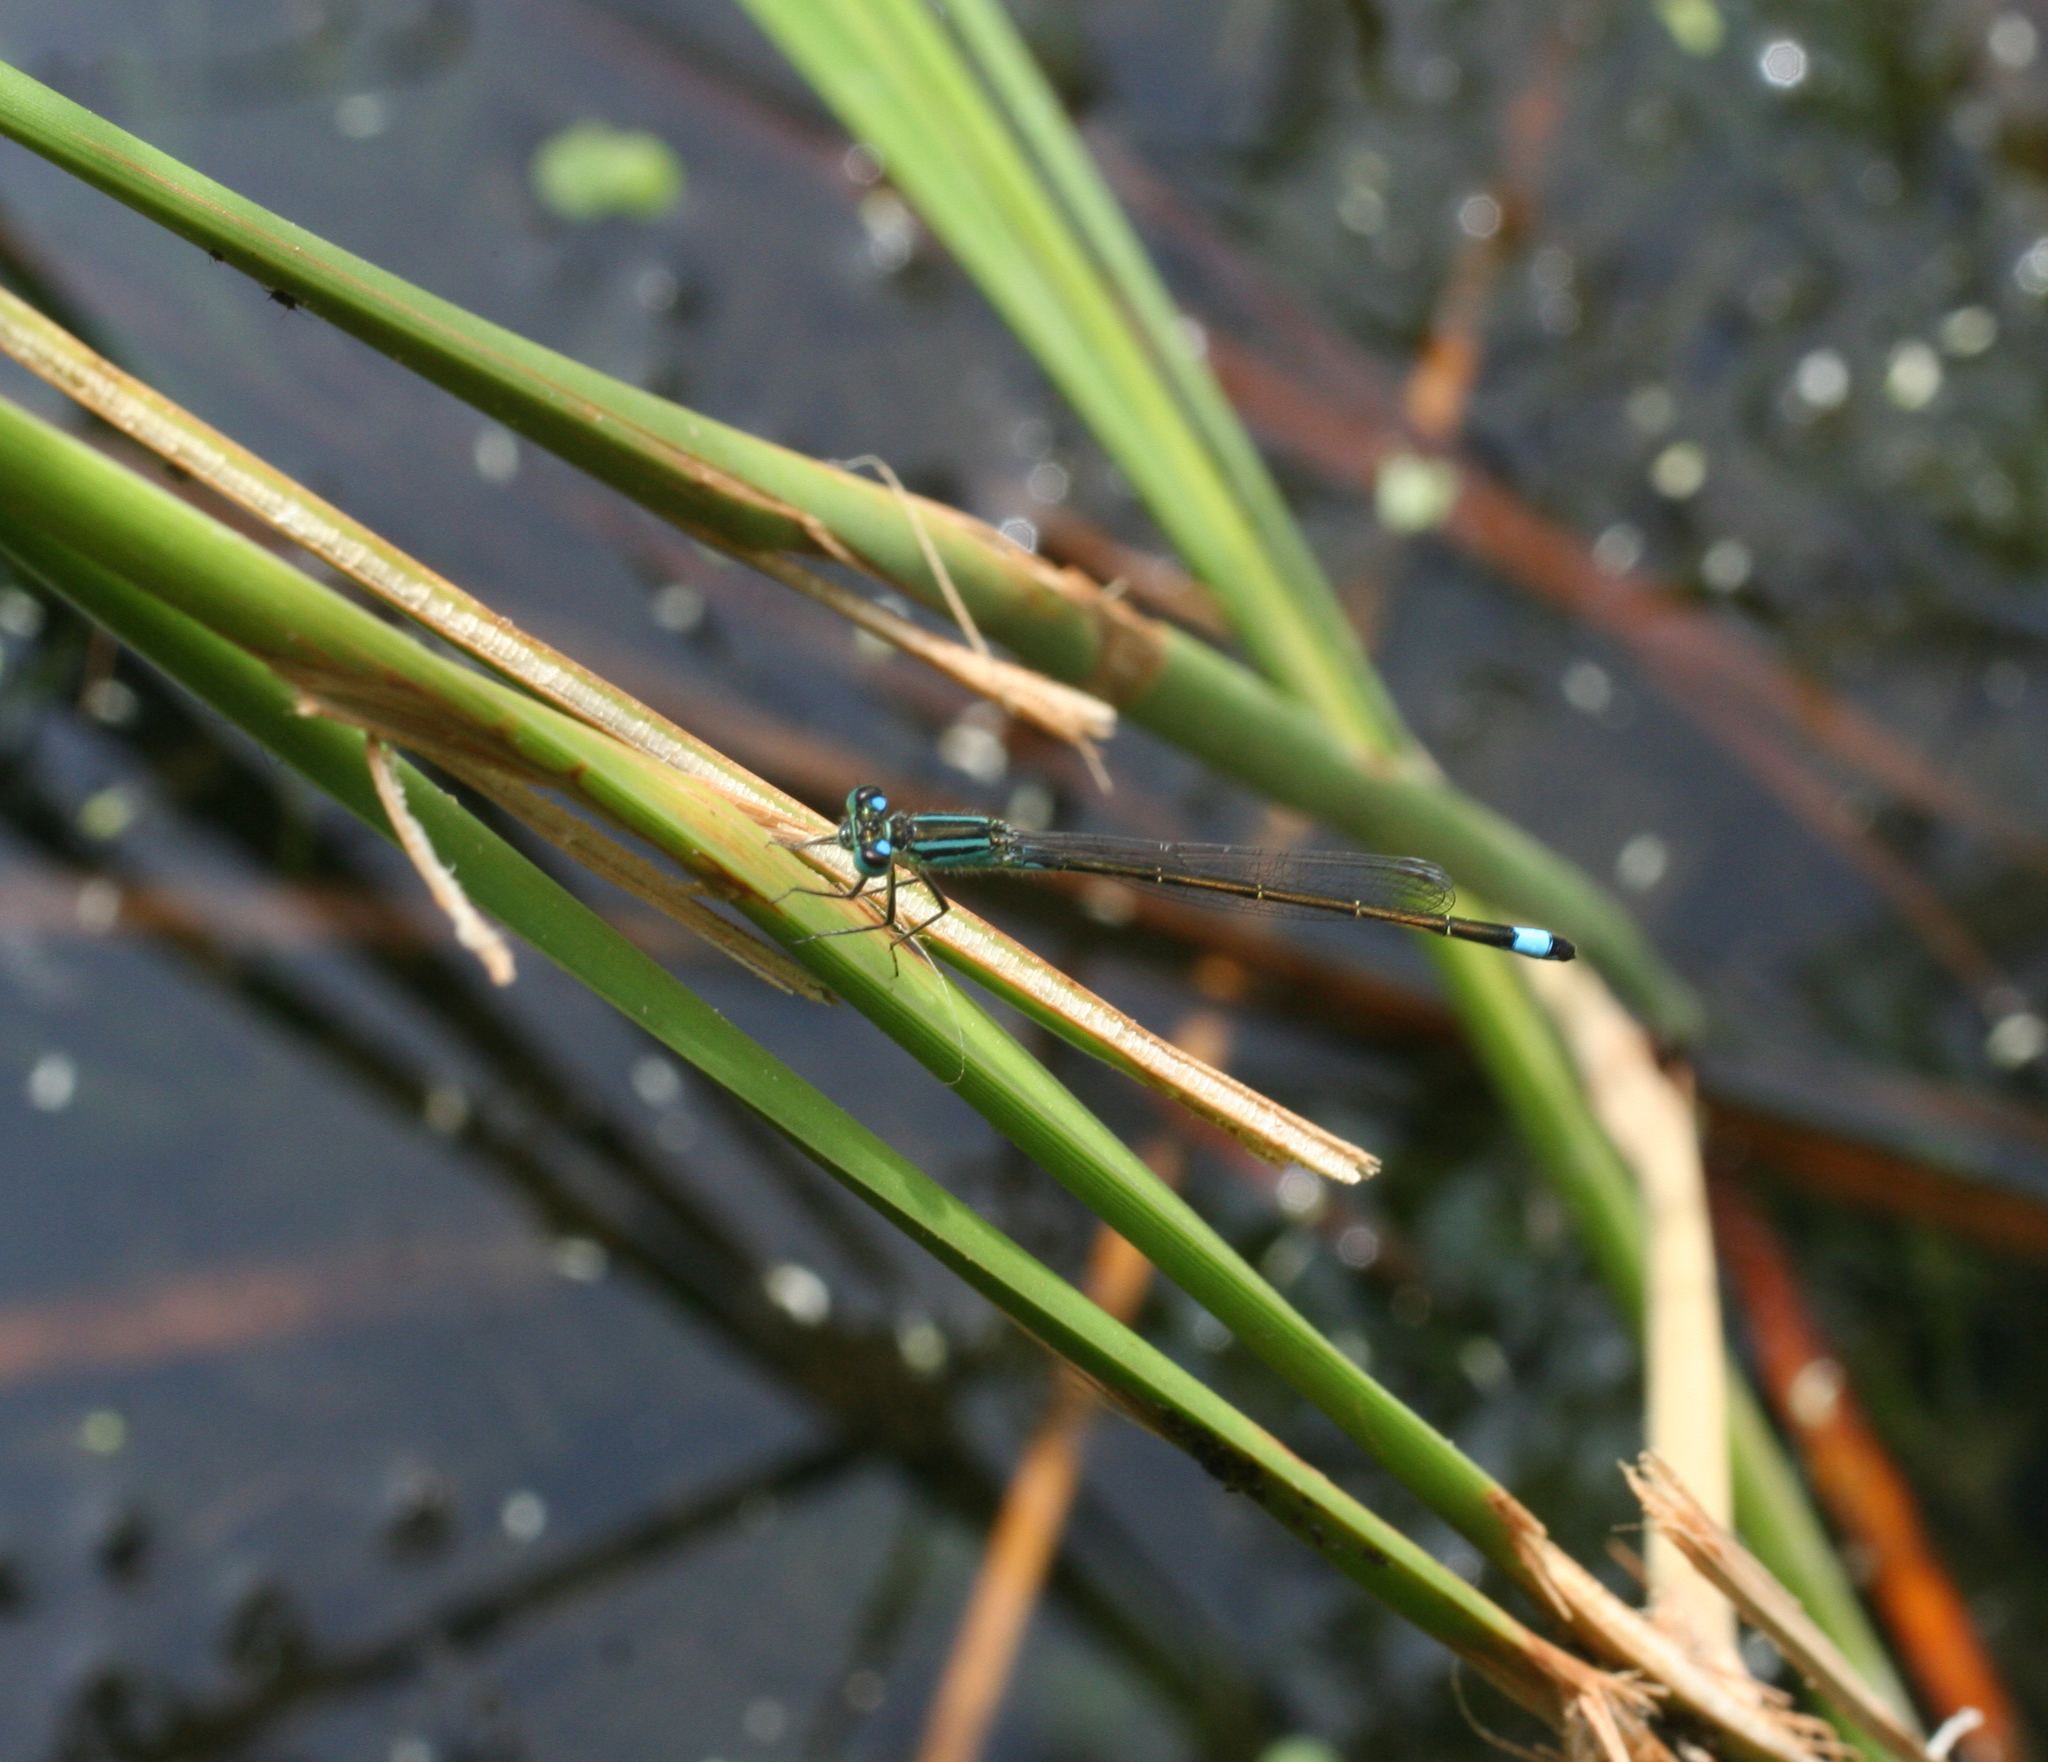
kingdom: Animalia
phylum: Arthropoda
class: Insecta
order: Odonata
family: Coenagrionidae
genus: Ischnura
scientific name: Ischnura elegans
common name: Blue-tailed damselfly
